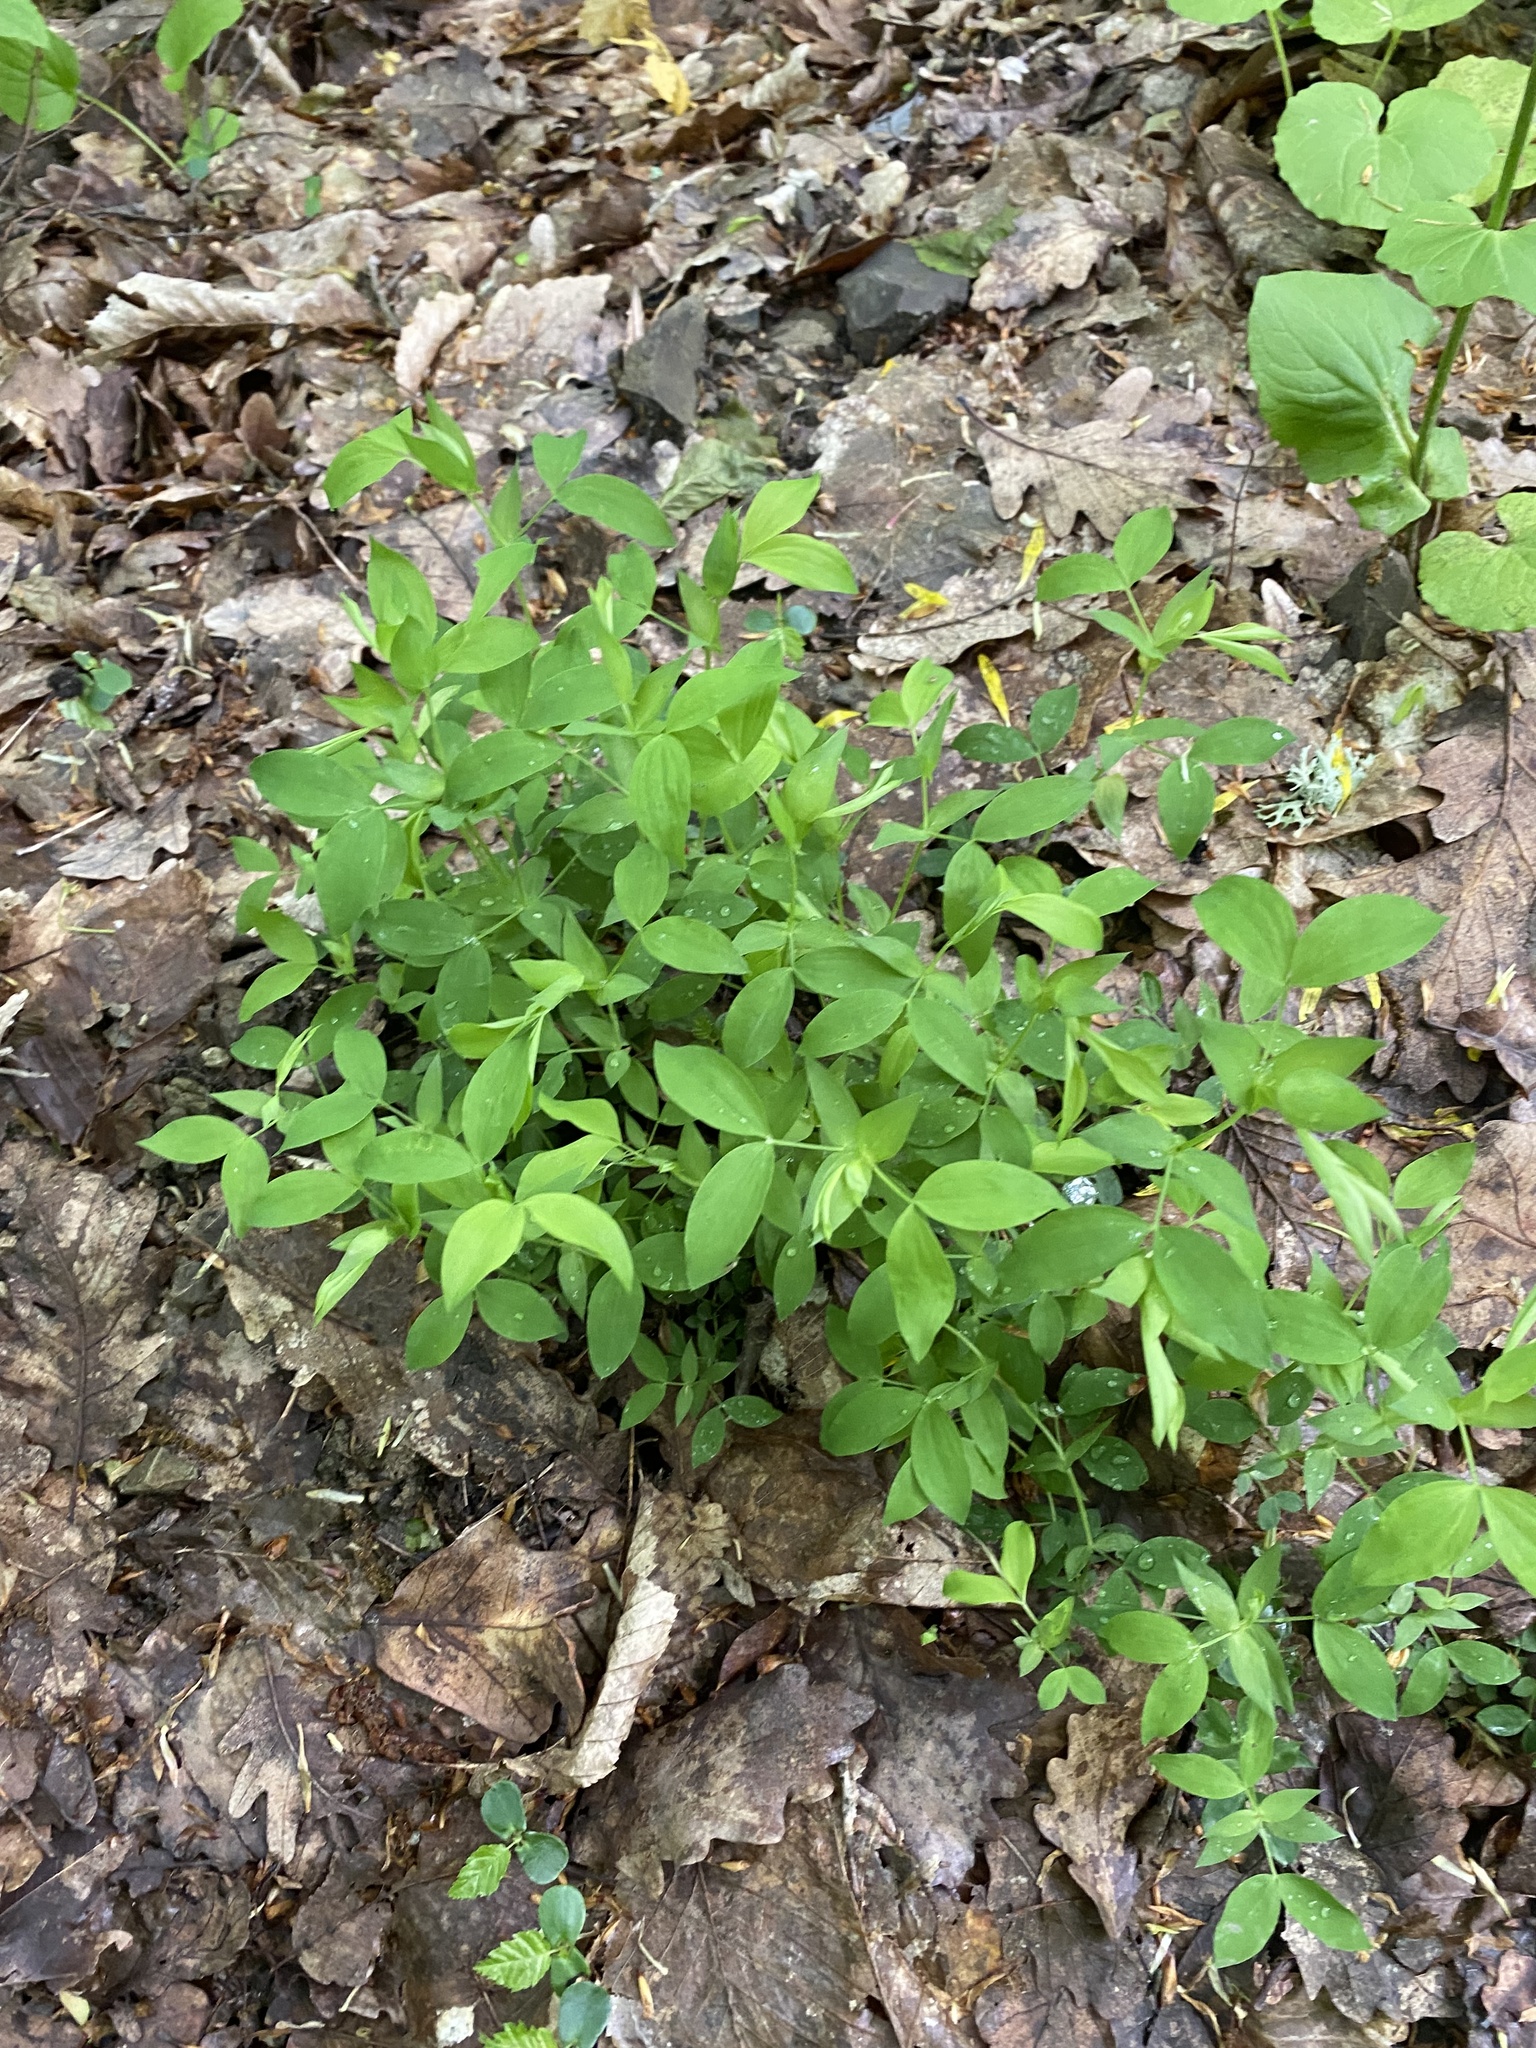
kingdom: Plantae
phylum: Tracheophyta
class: Magnoliopsida
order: Fabales
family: Fabaceae
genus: Lathyrus
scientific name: Lathyrus laxiflorus
